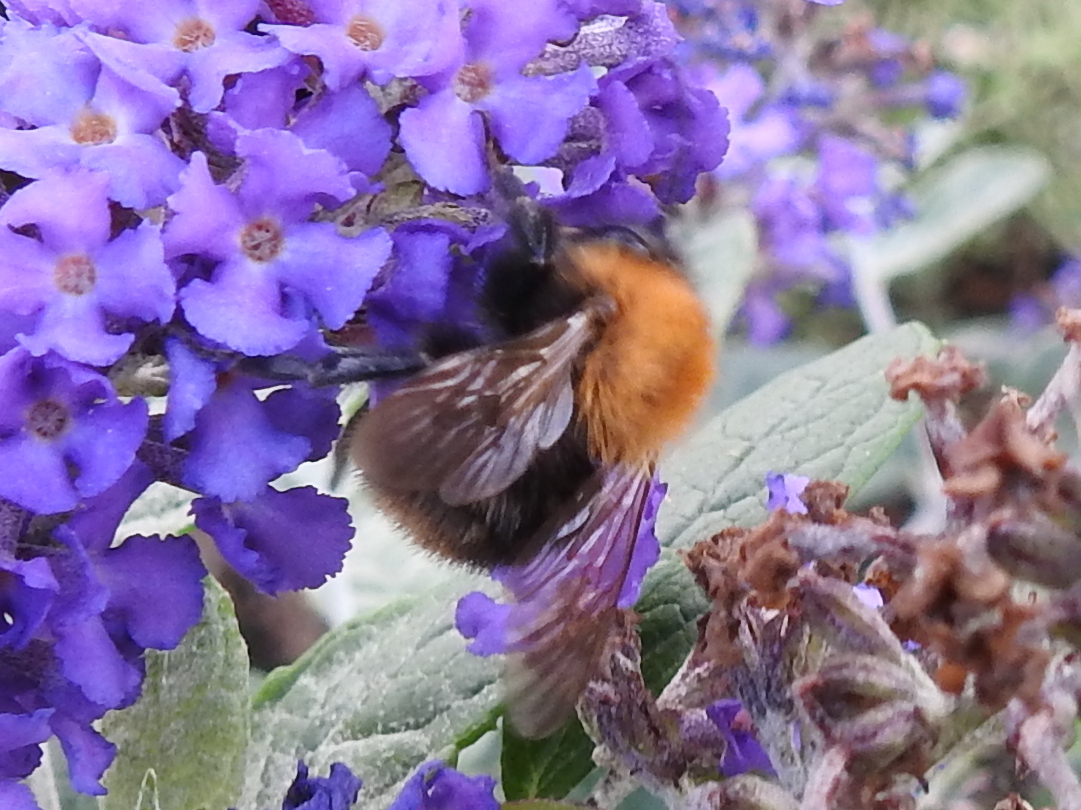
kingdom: Animalia
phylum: Arthropoda
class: Insecta
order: Hymenoptera
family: Apidae
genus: Bombus
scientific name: Bombus pascuorum
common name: Common carder bee
